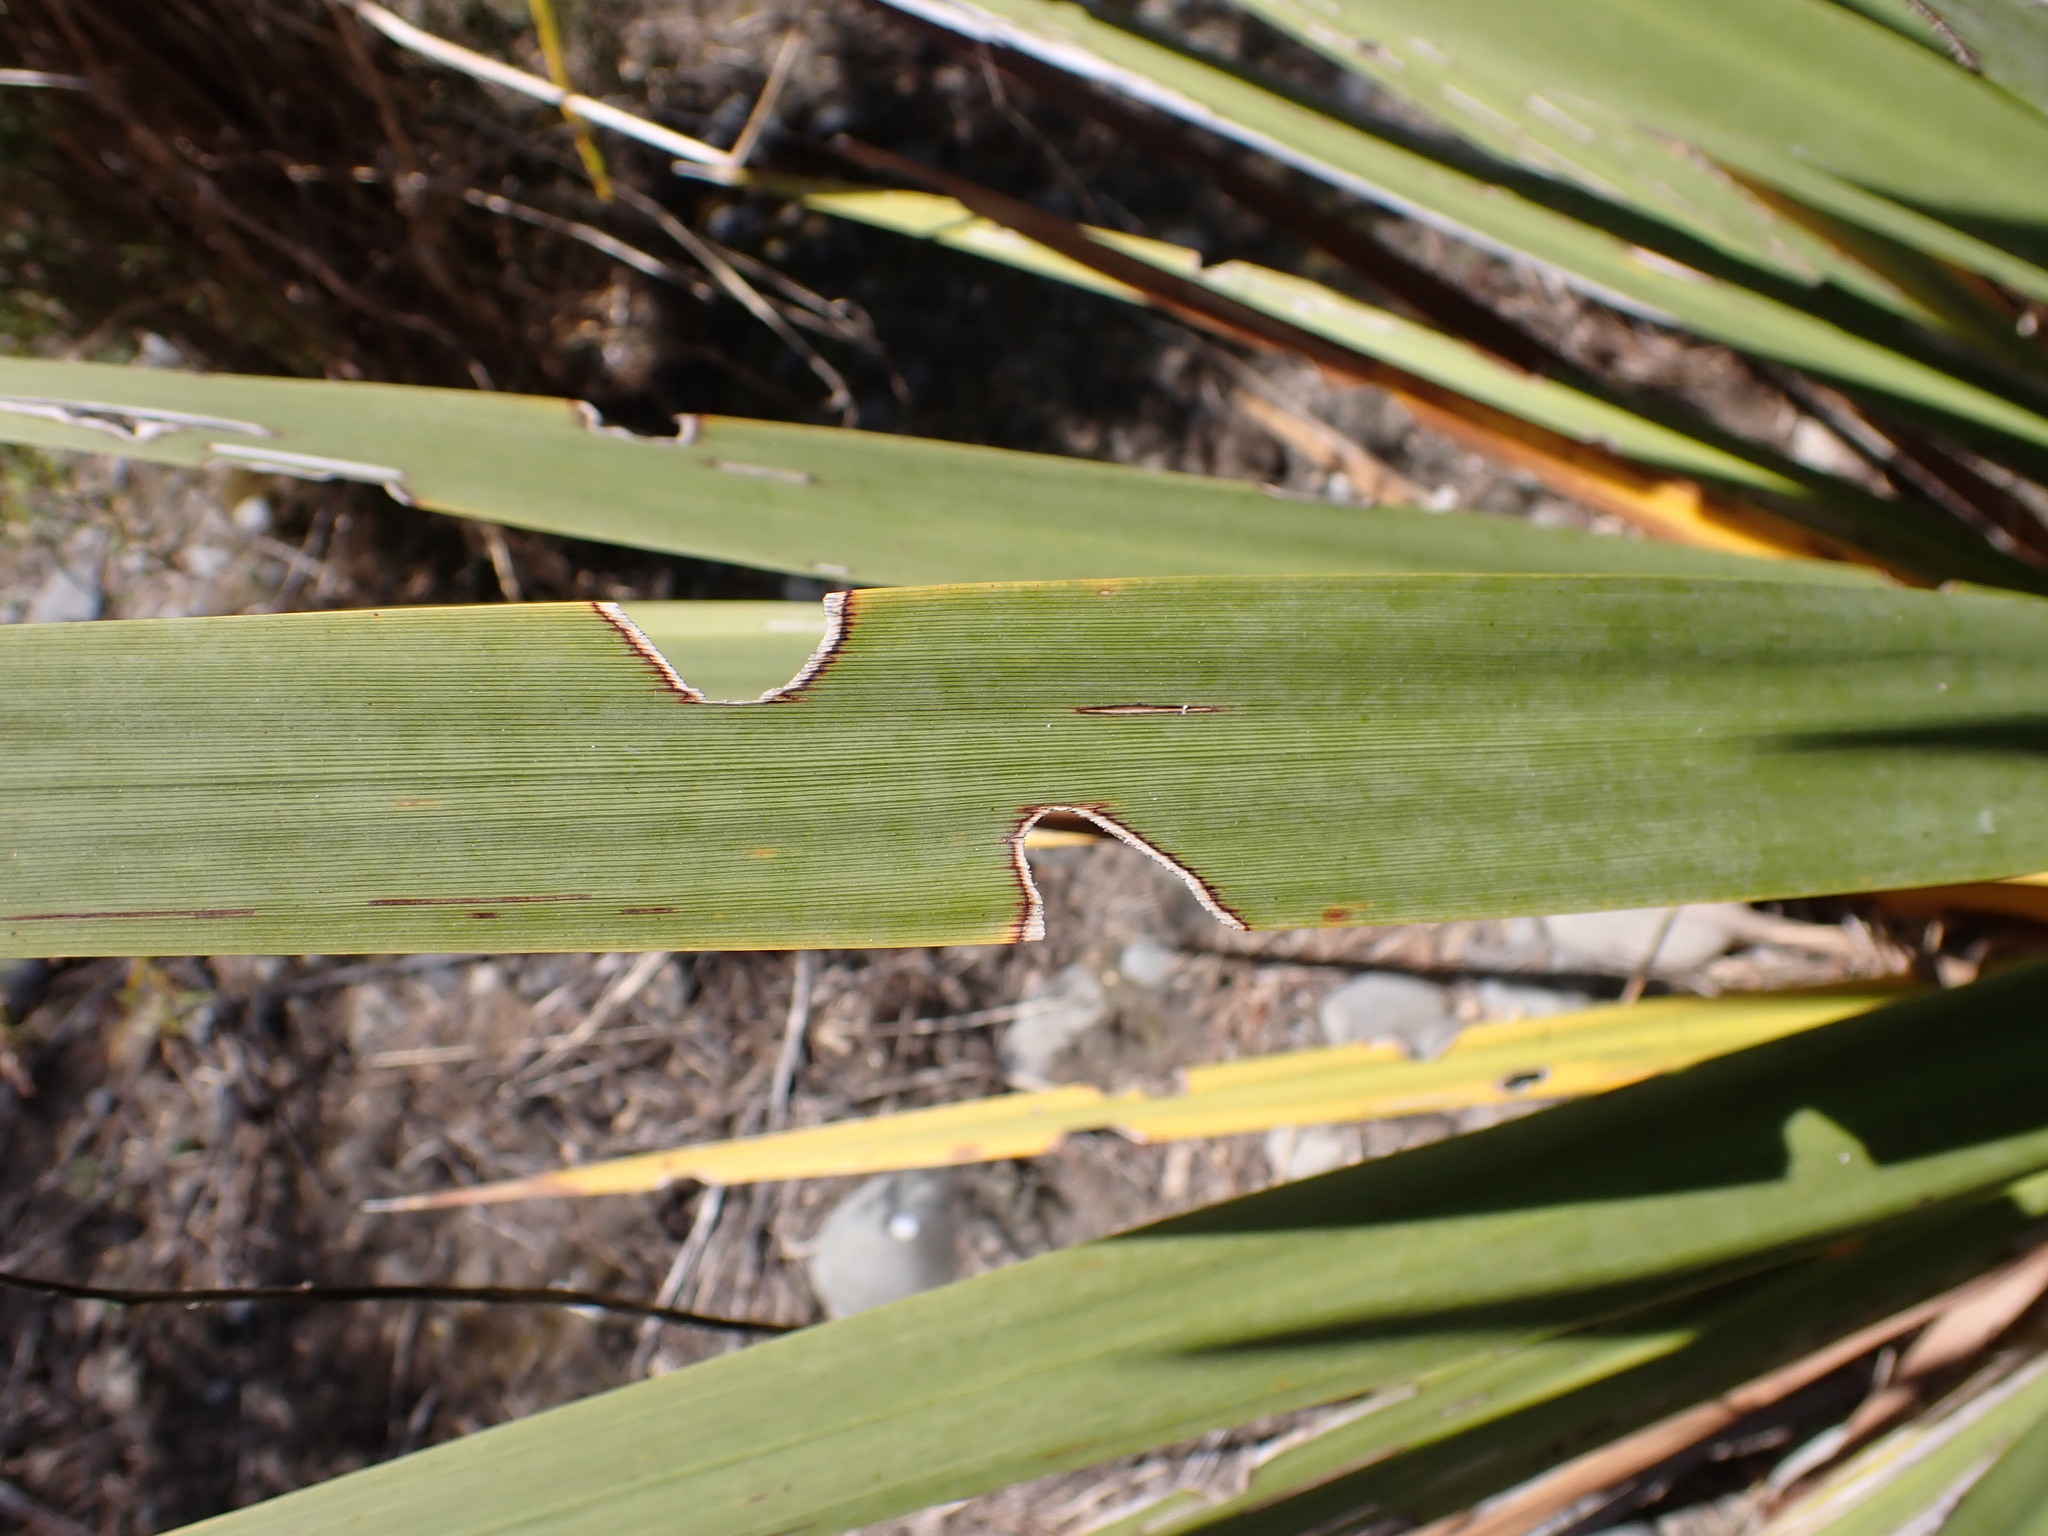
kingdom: Animalia
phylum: Arthropoda
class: Insecta
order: Lepidoptera
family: Geometridae
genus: Epiphryne
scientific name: Epiphryne verriculata
